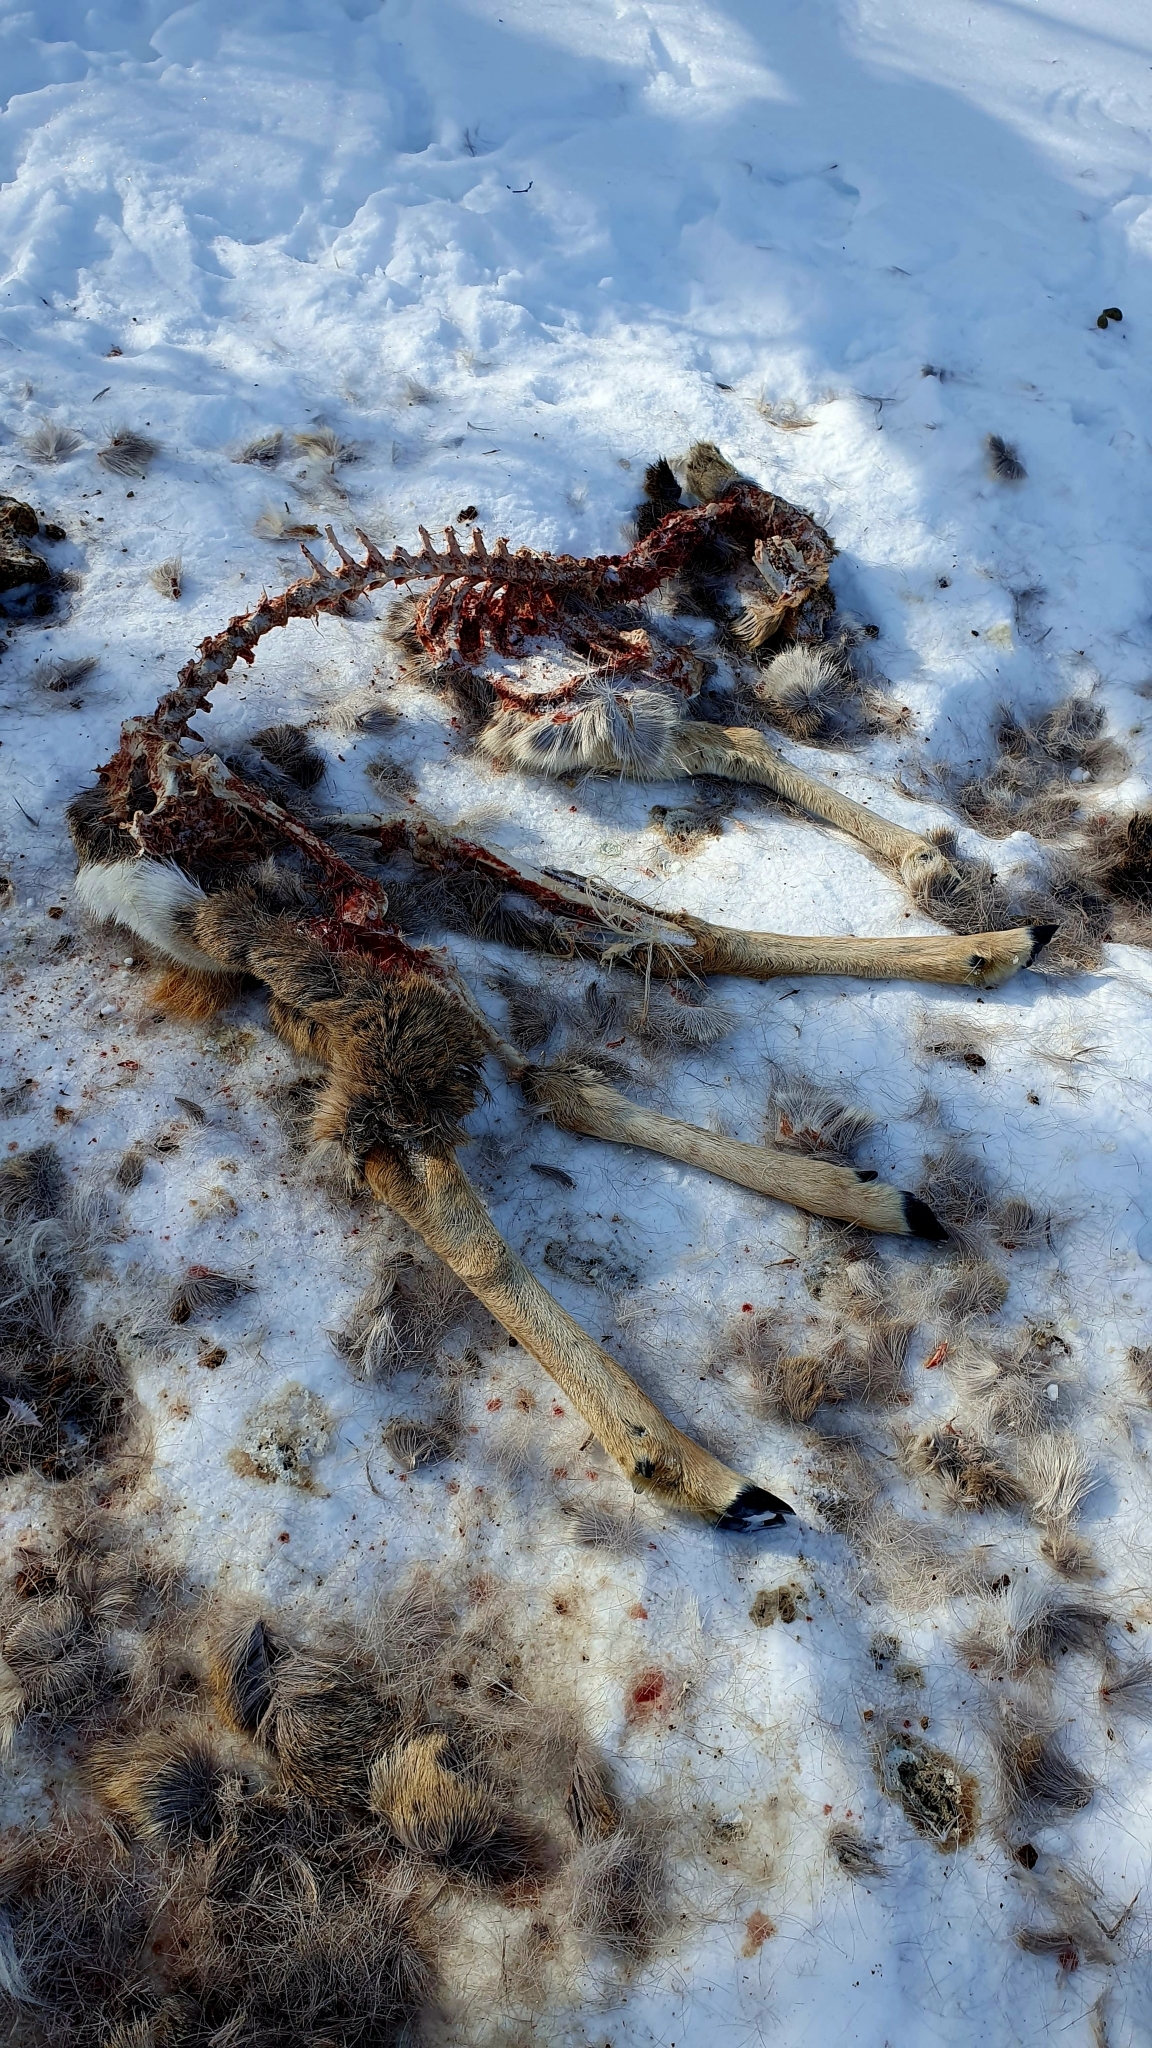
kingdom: Animalia
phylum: Chordata
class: Mammalia
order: Artiodactyla
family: Cervidae
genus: Capreolus
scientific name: Capreolus pygargus
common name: Siberian roe
